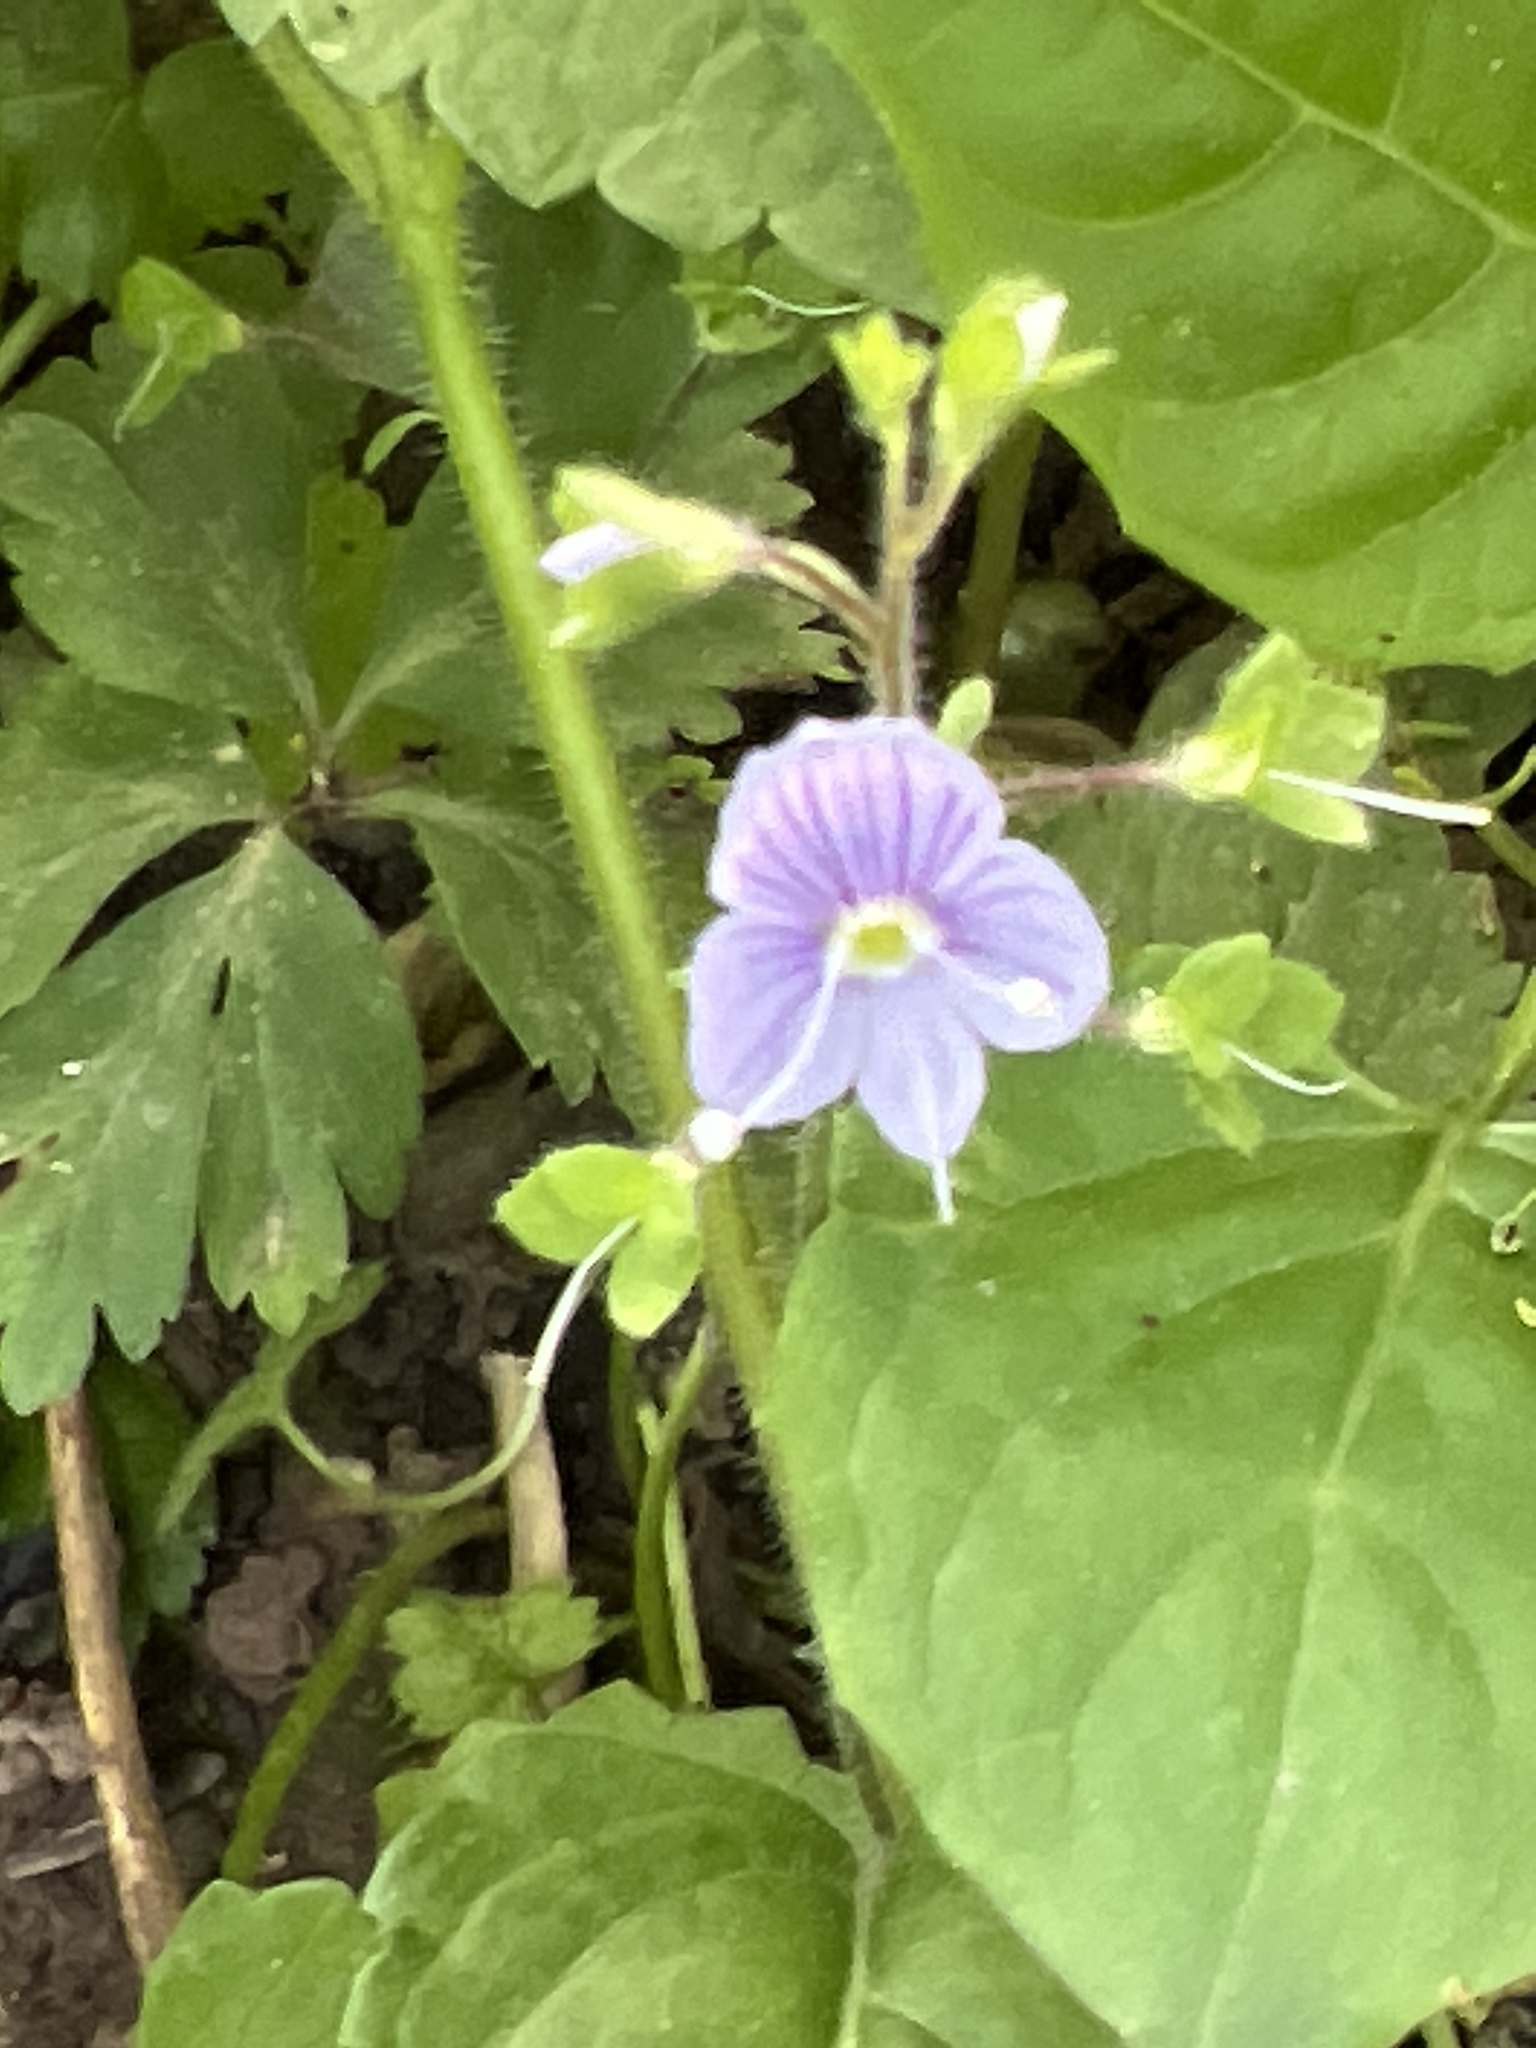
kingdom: Plantae
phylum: Tracheophyta
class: Magnoliopsida
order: Lamiales
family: Plantaginaceae
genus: Veronica
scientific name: Veronica montana
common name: Wood speedwell
